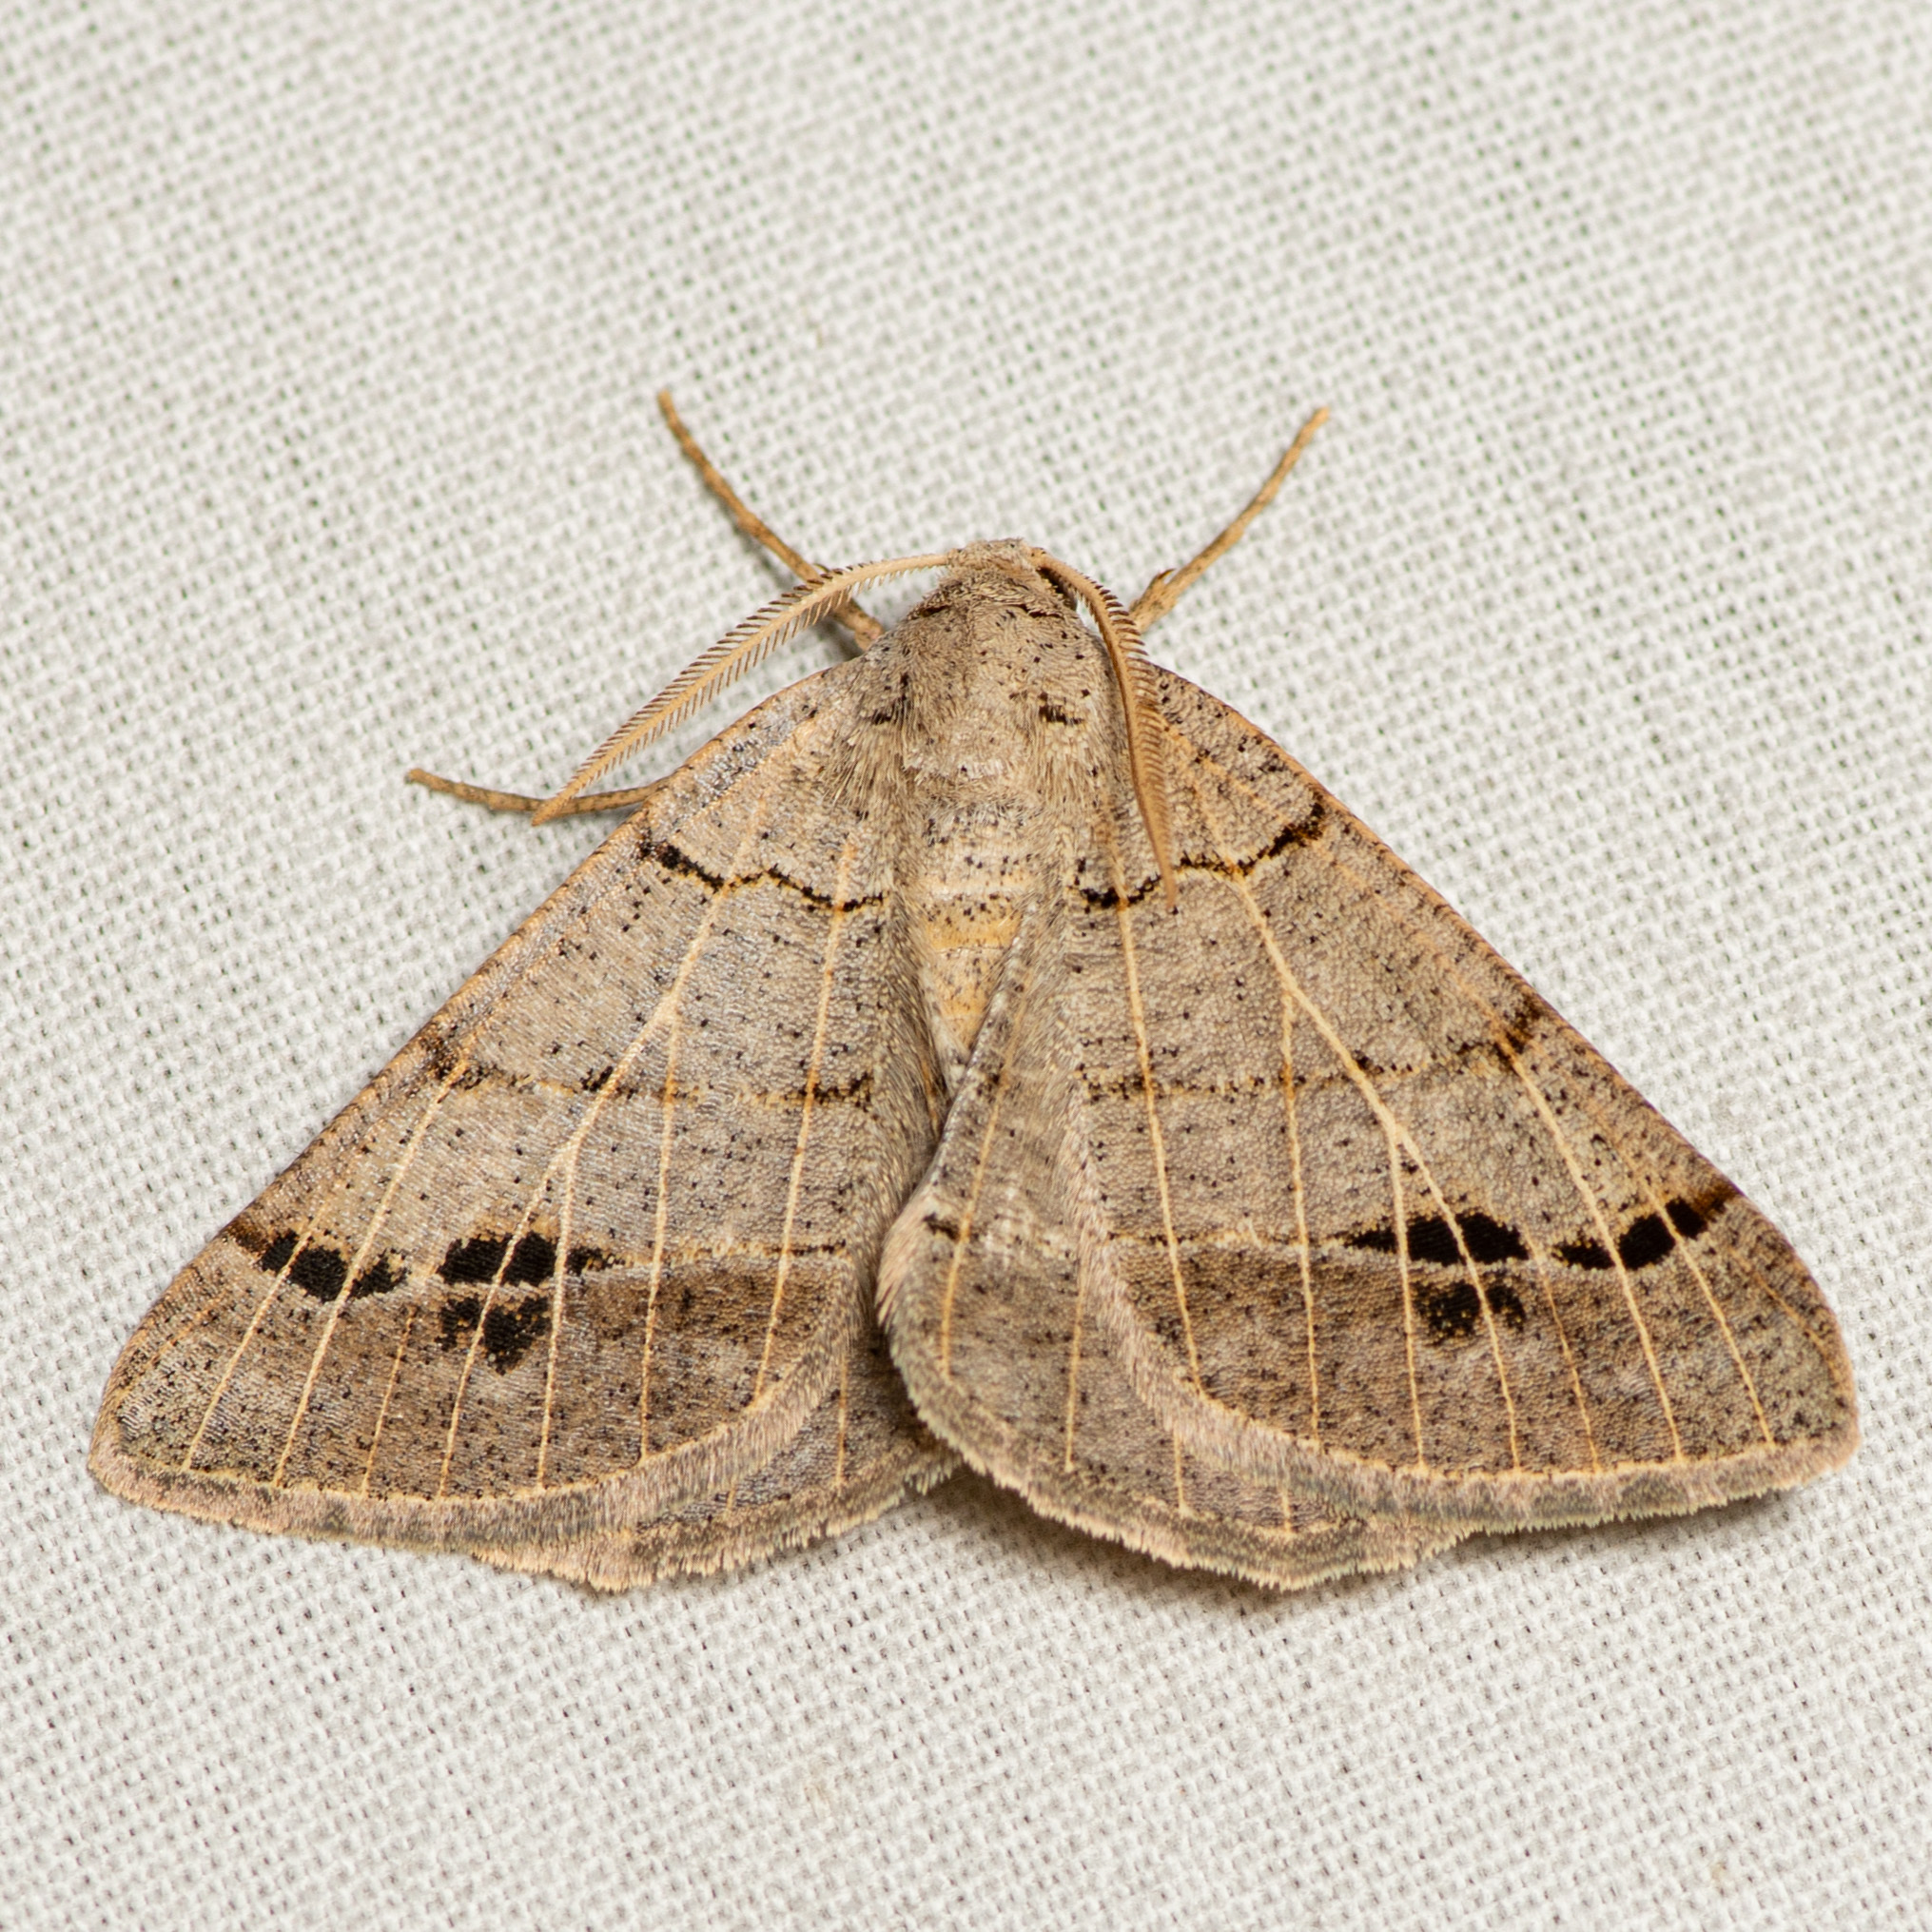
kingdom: Animalia
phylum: Arthropoda
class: Insecta
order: Lepidoptera
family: Geometridae
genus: Isturgia
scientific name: Isturgia dislocaria
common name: Pale-viened enconista
